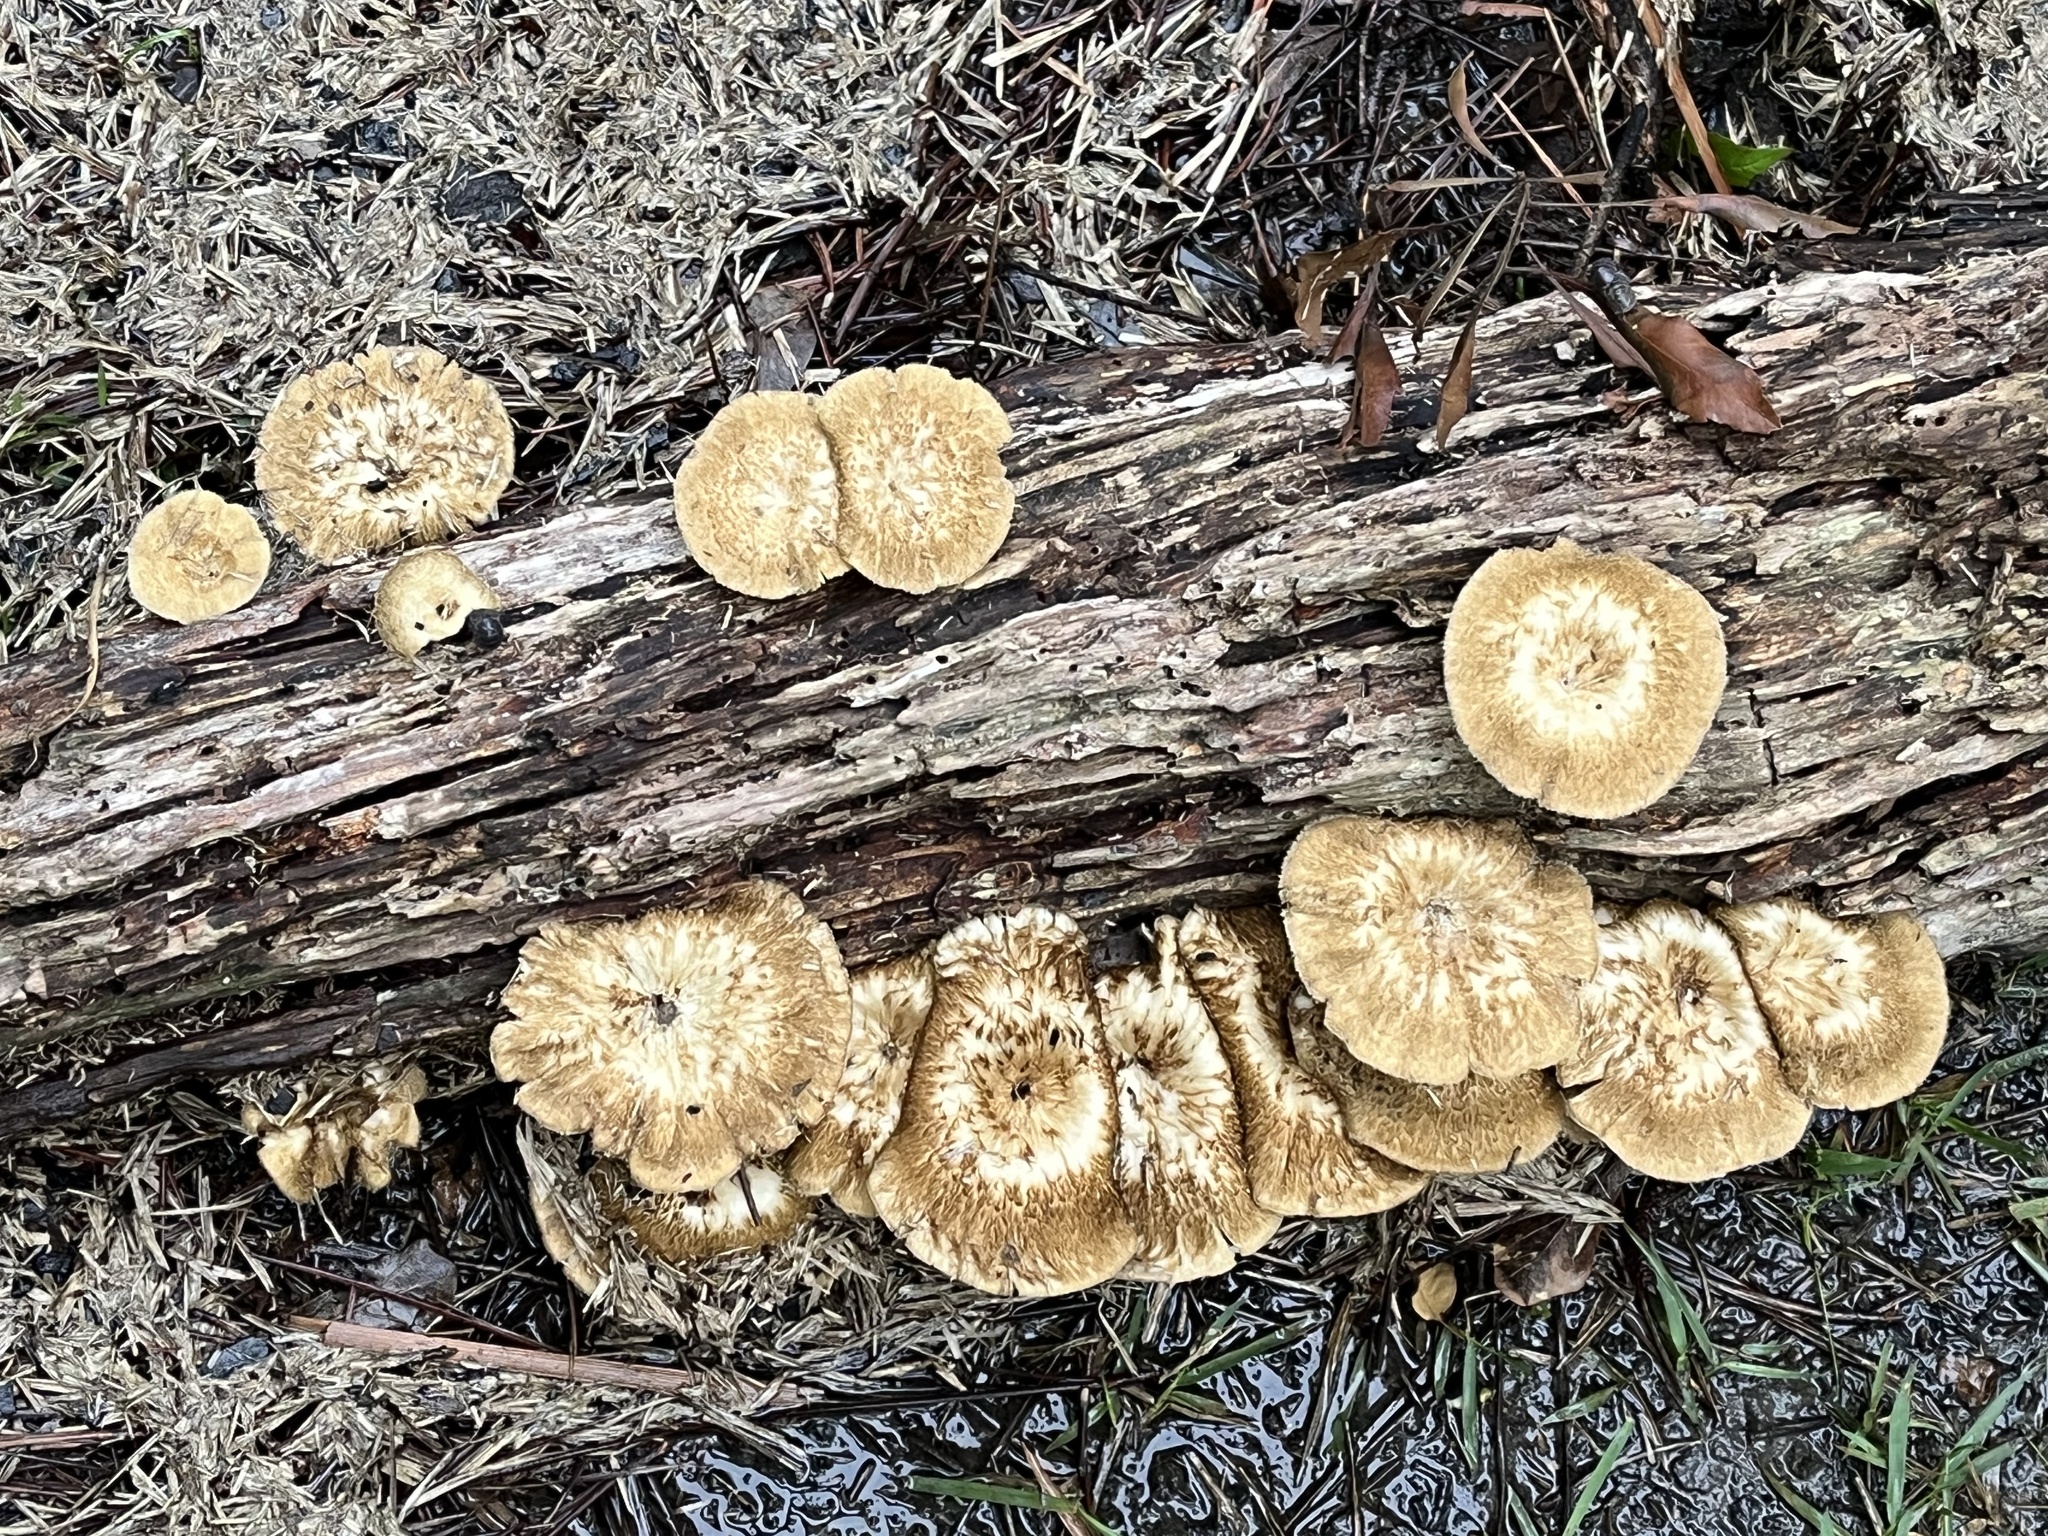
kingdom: Fungi
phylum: Basidiomycota
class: Agaricomycetes
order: Polyporales
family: Polyporaceae
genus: Lentinus
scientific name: Lentinus crinitus
